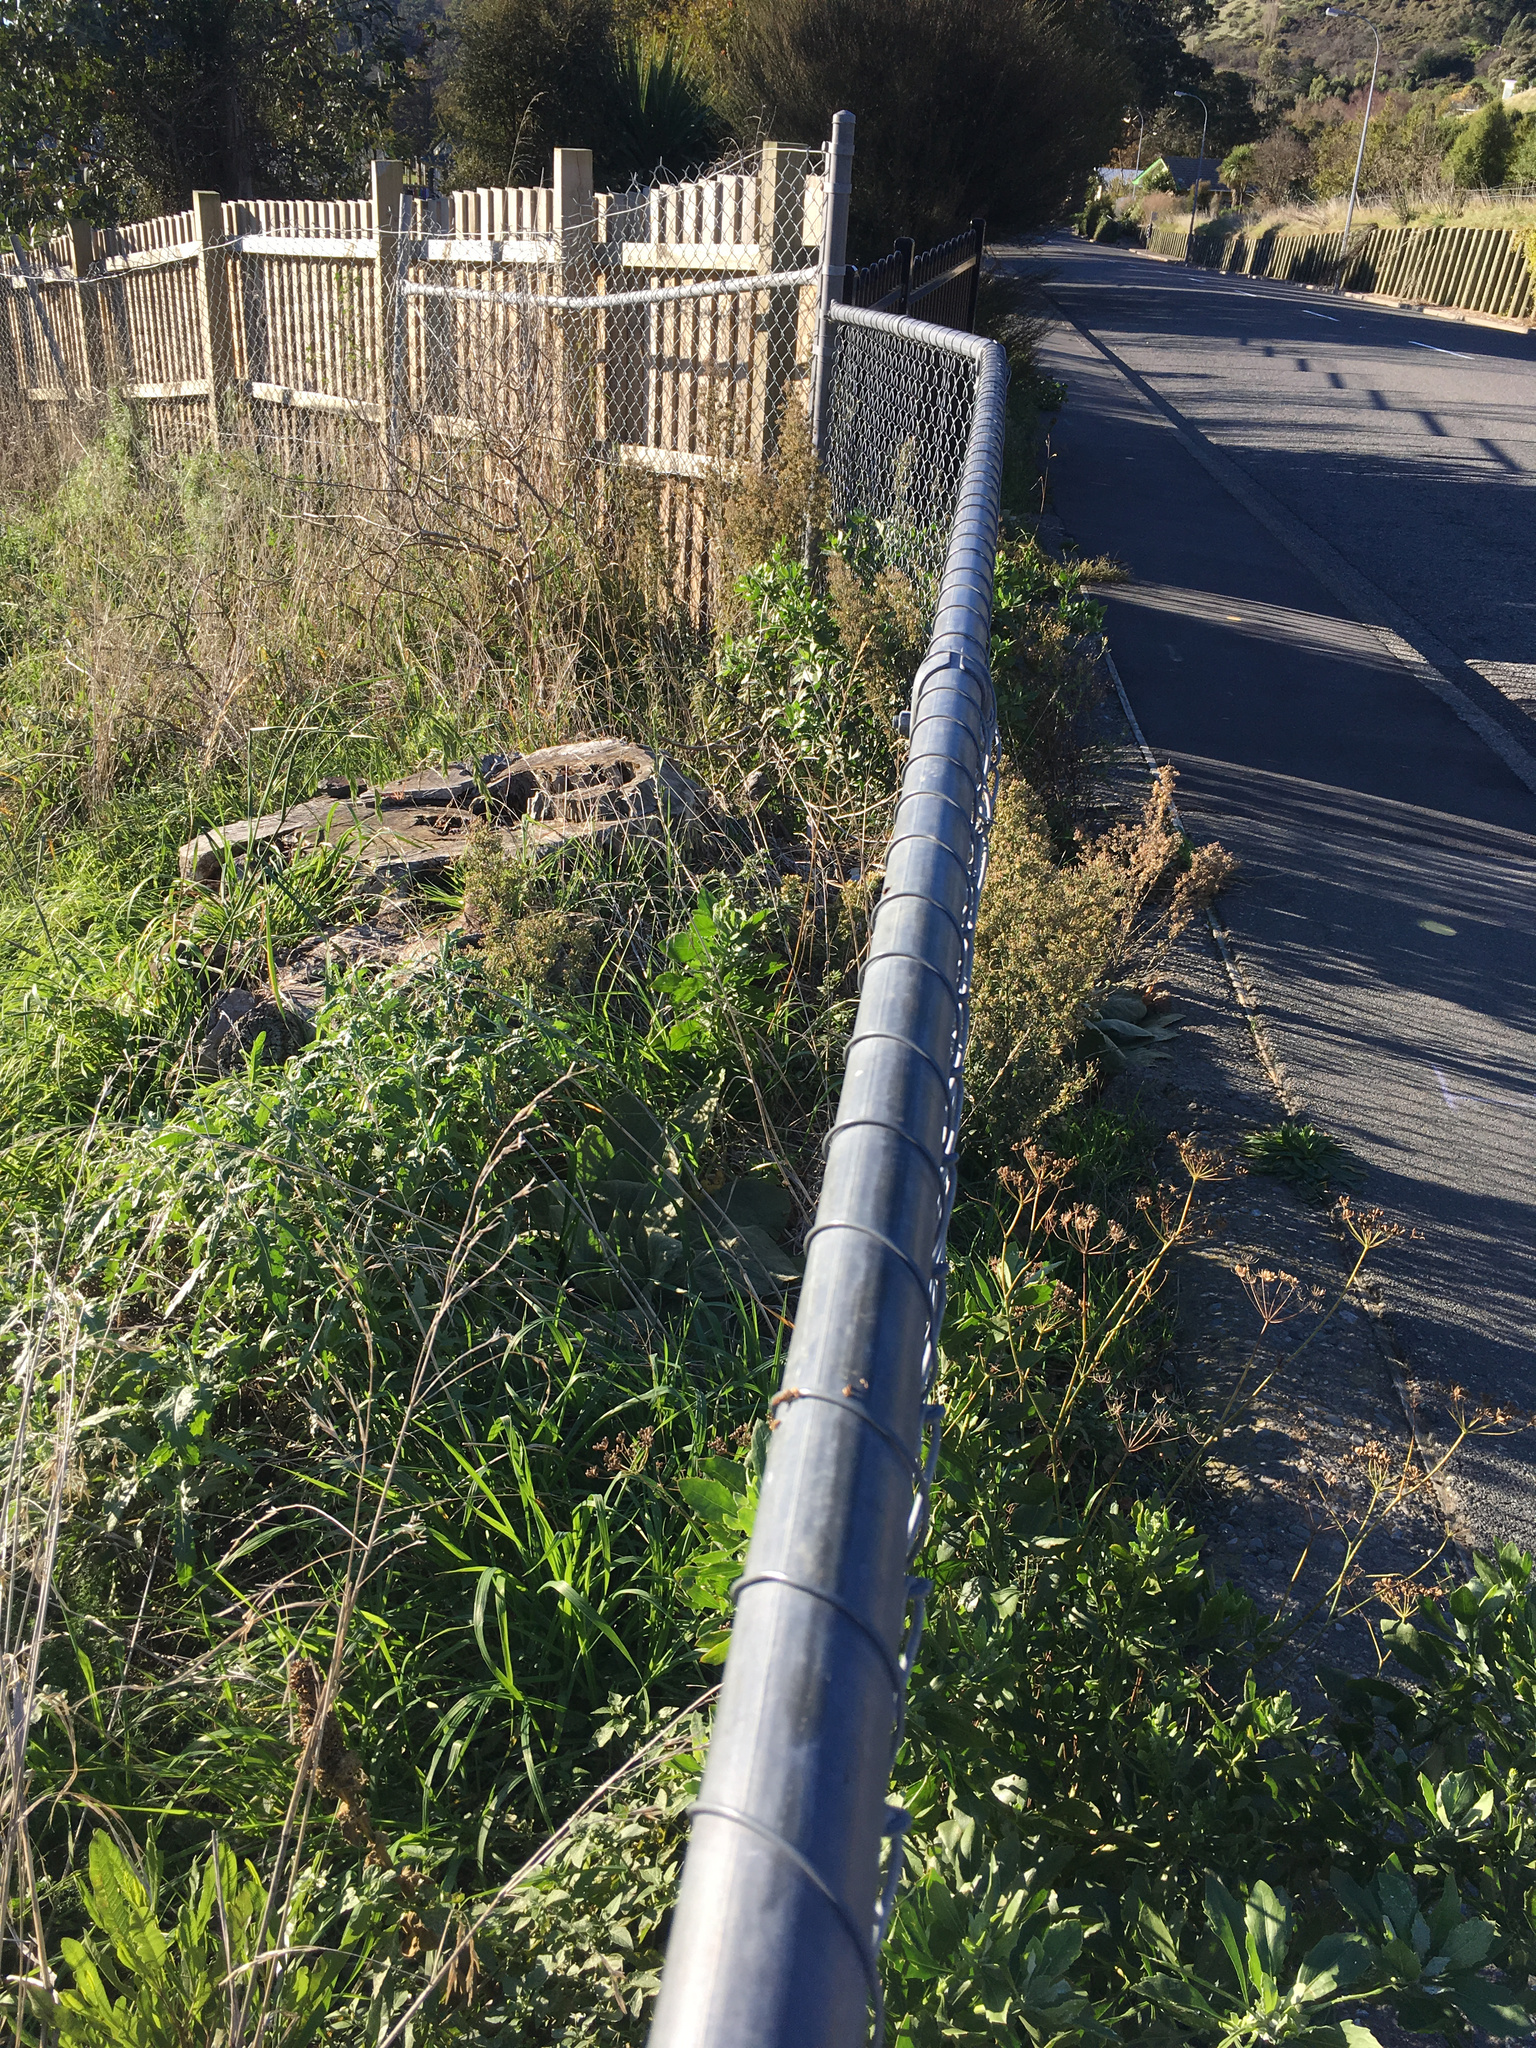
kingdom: Plantae
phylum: Tracheophyta
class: Magnoliopsida
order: Asterales
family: Asteraceae
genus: Osteospermum
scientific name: Osteospermum moniliferum
